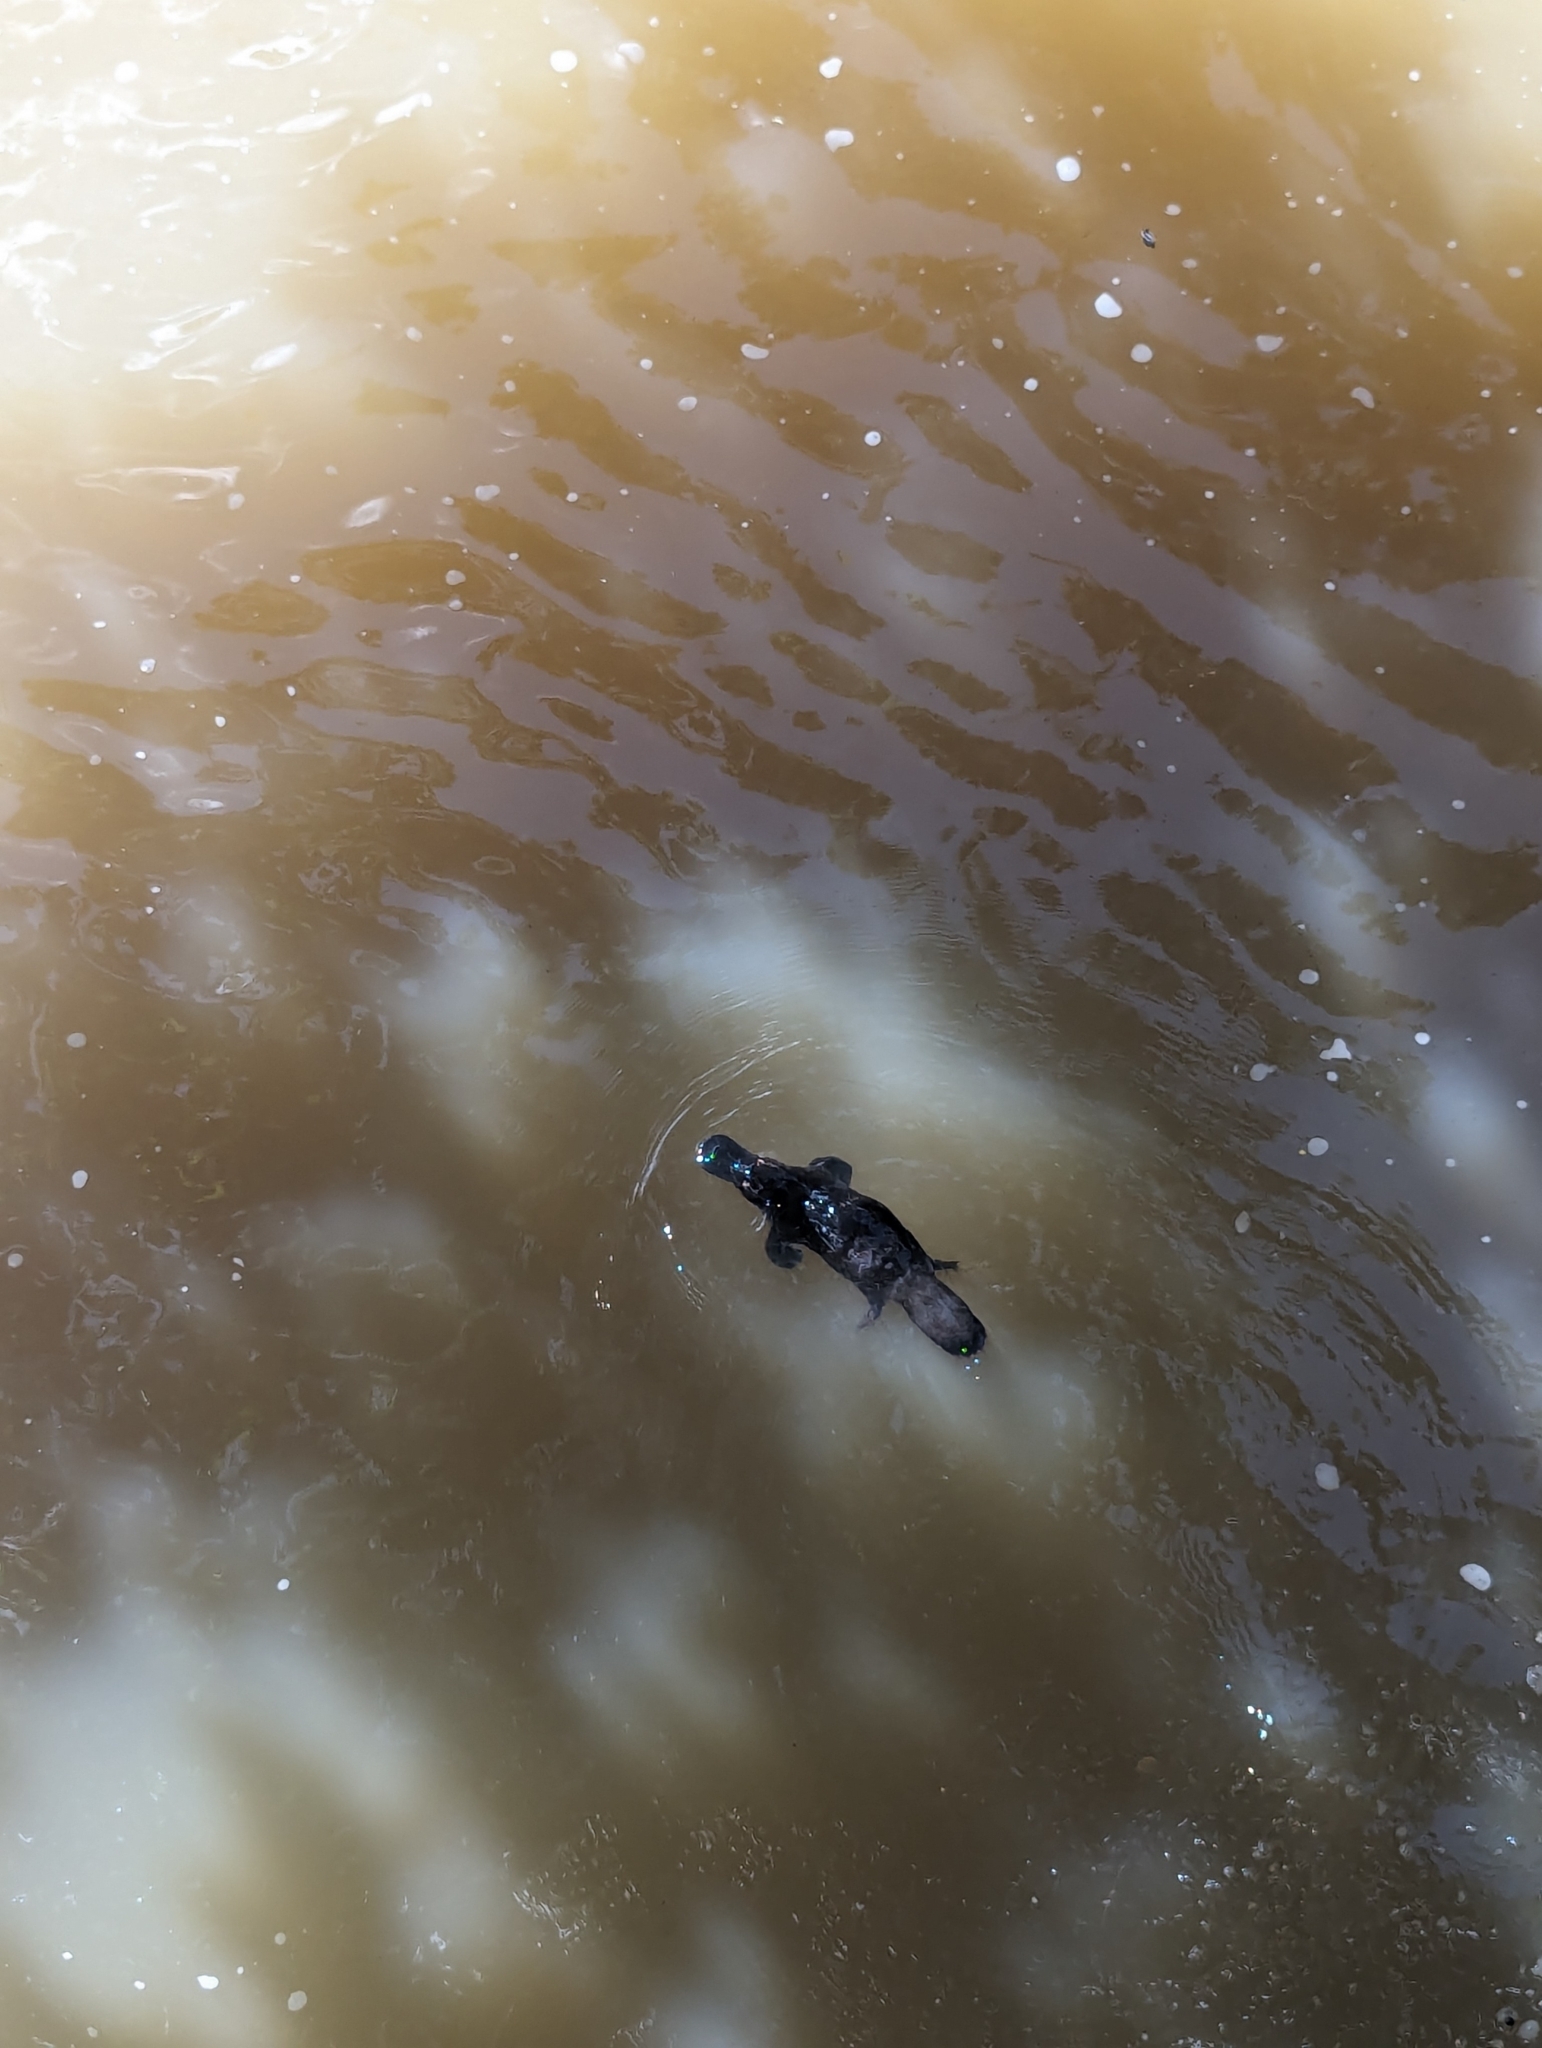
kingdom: Animalia
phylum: Chordata
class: Mammalia
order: Monotremata
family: Ornithorhynchidae
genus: Ornithorhynchus
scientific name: Ornithorhynchus anatinus
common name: Platypus
